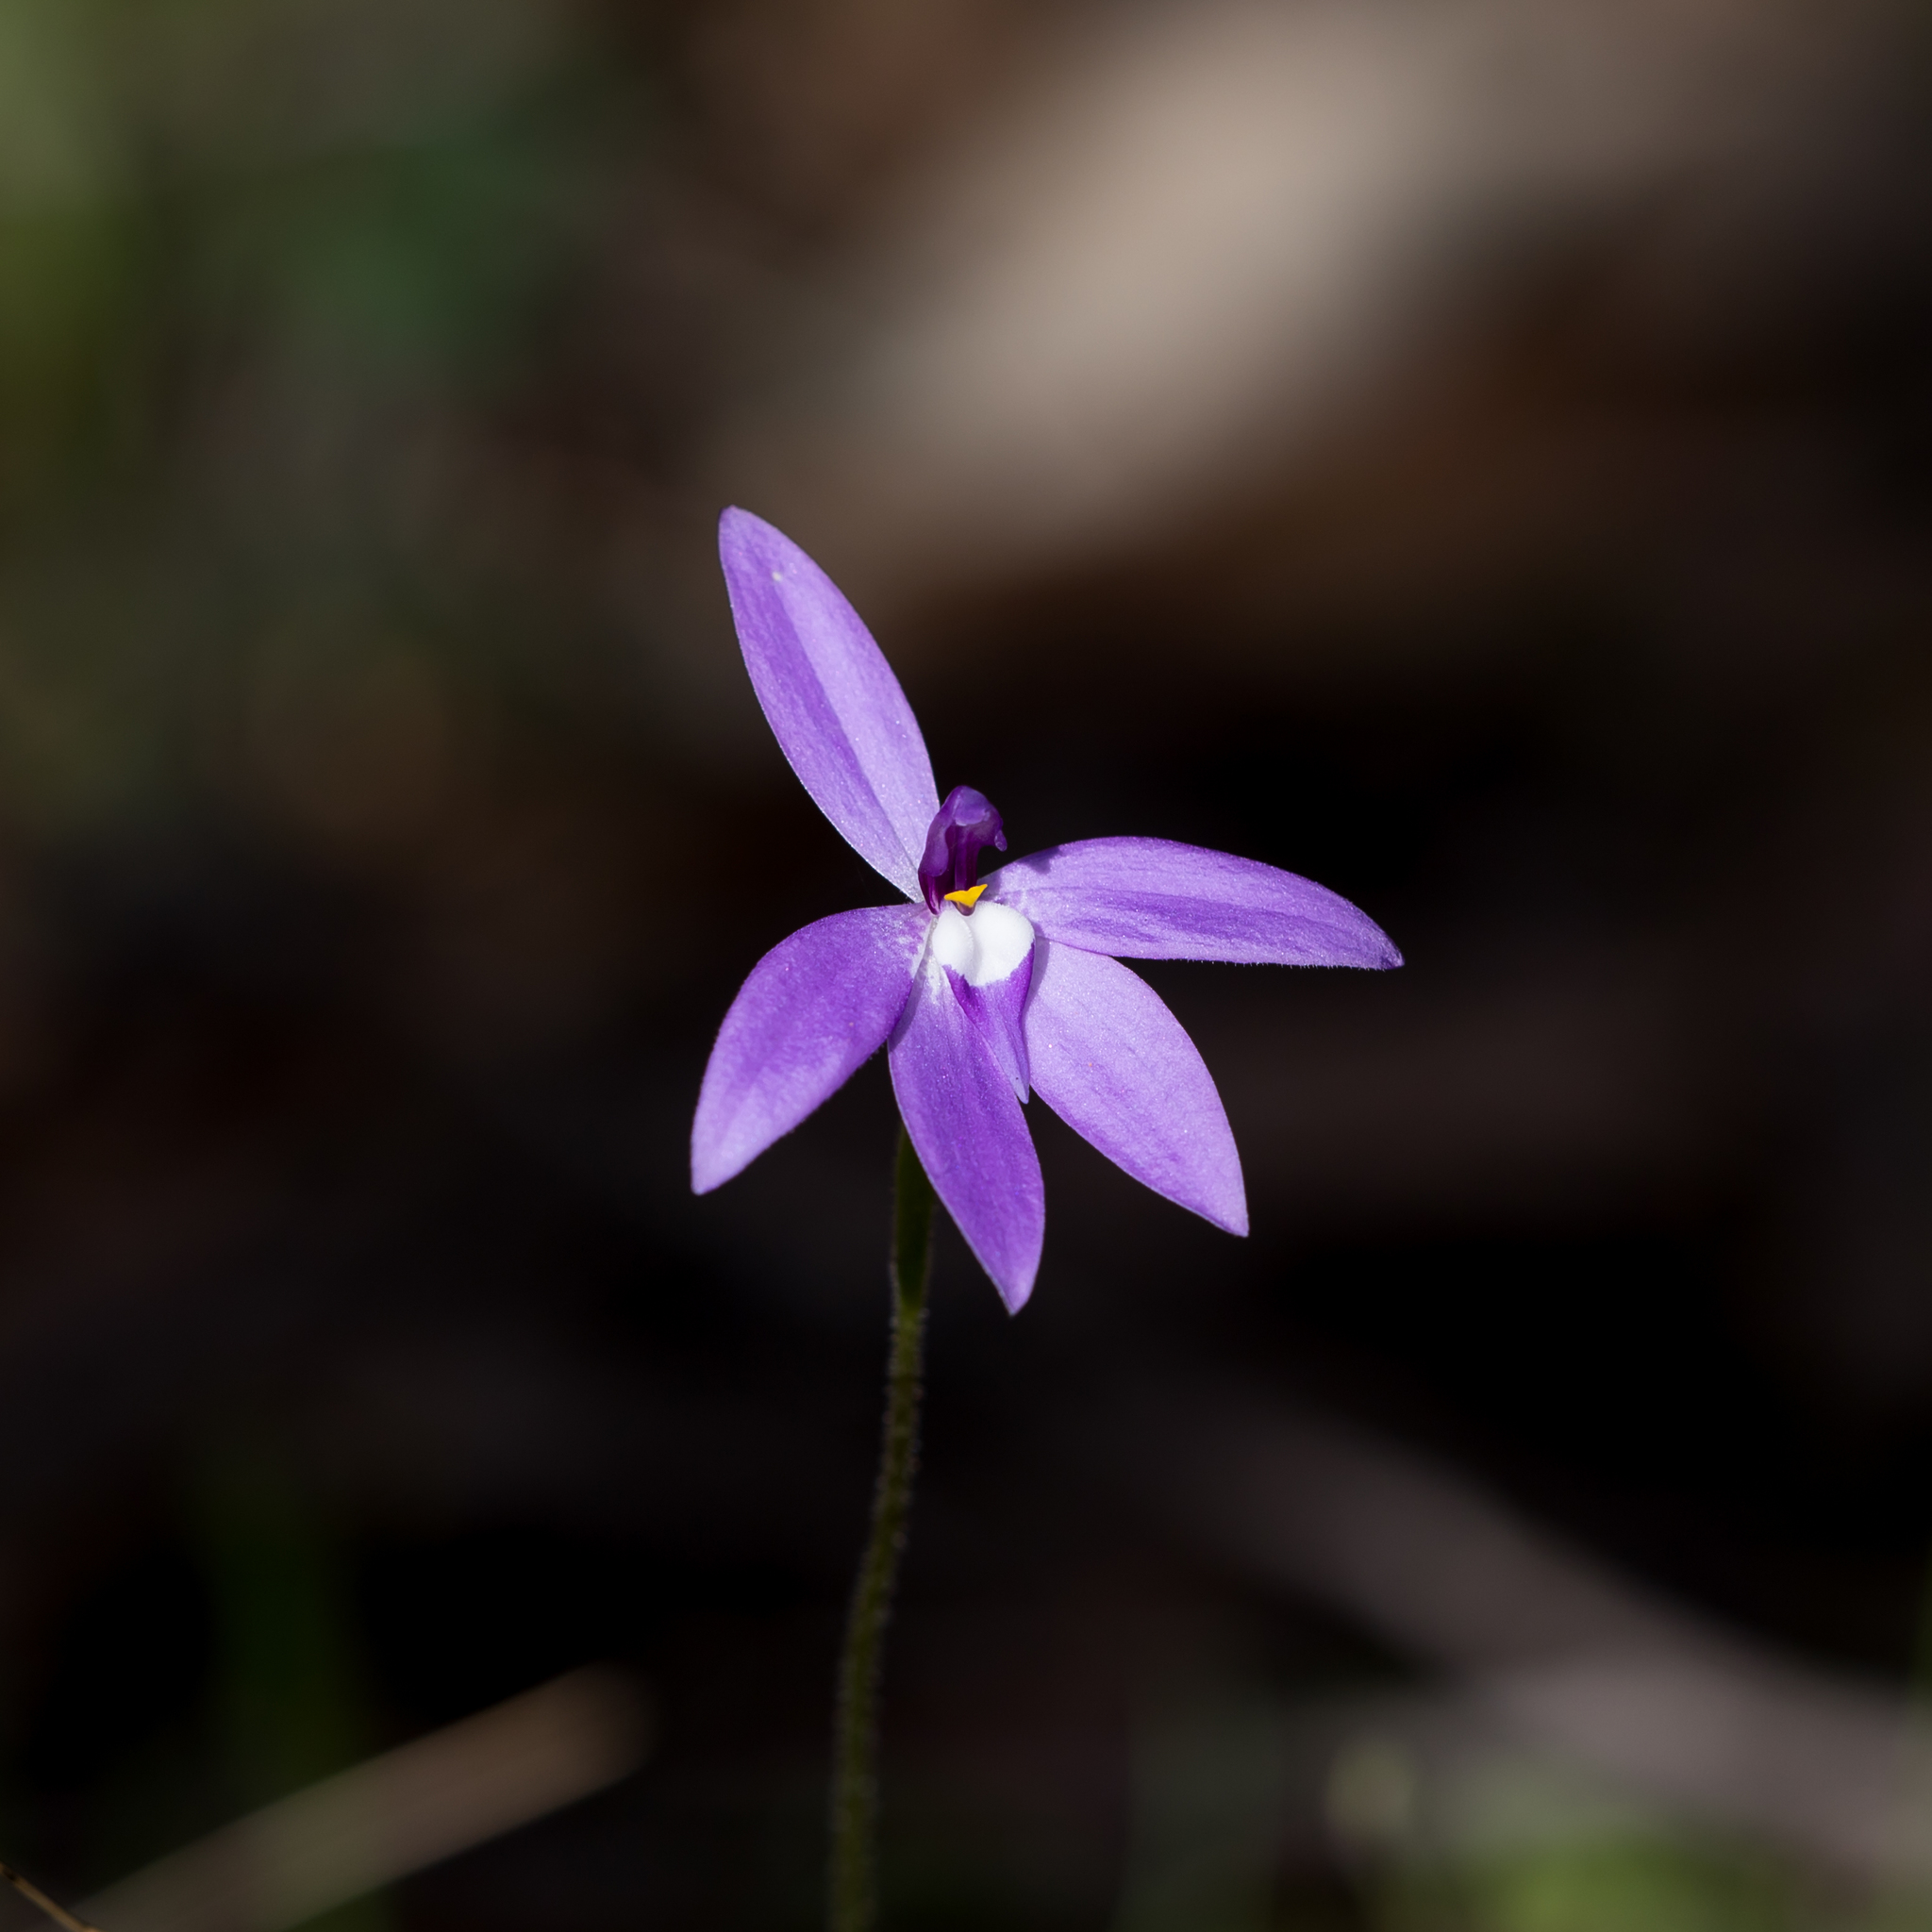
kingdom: Plantae
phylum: Tracheophyta
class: Liliopsida
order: Asparagales
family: Orchidaceae
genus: Caladenia
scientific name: Caladenia major
